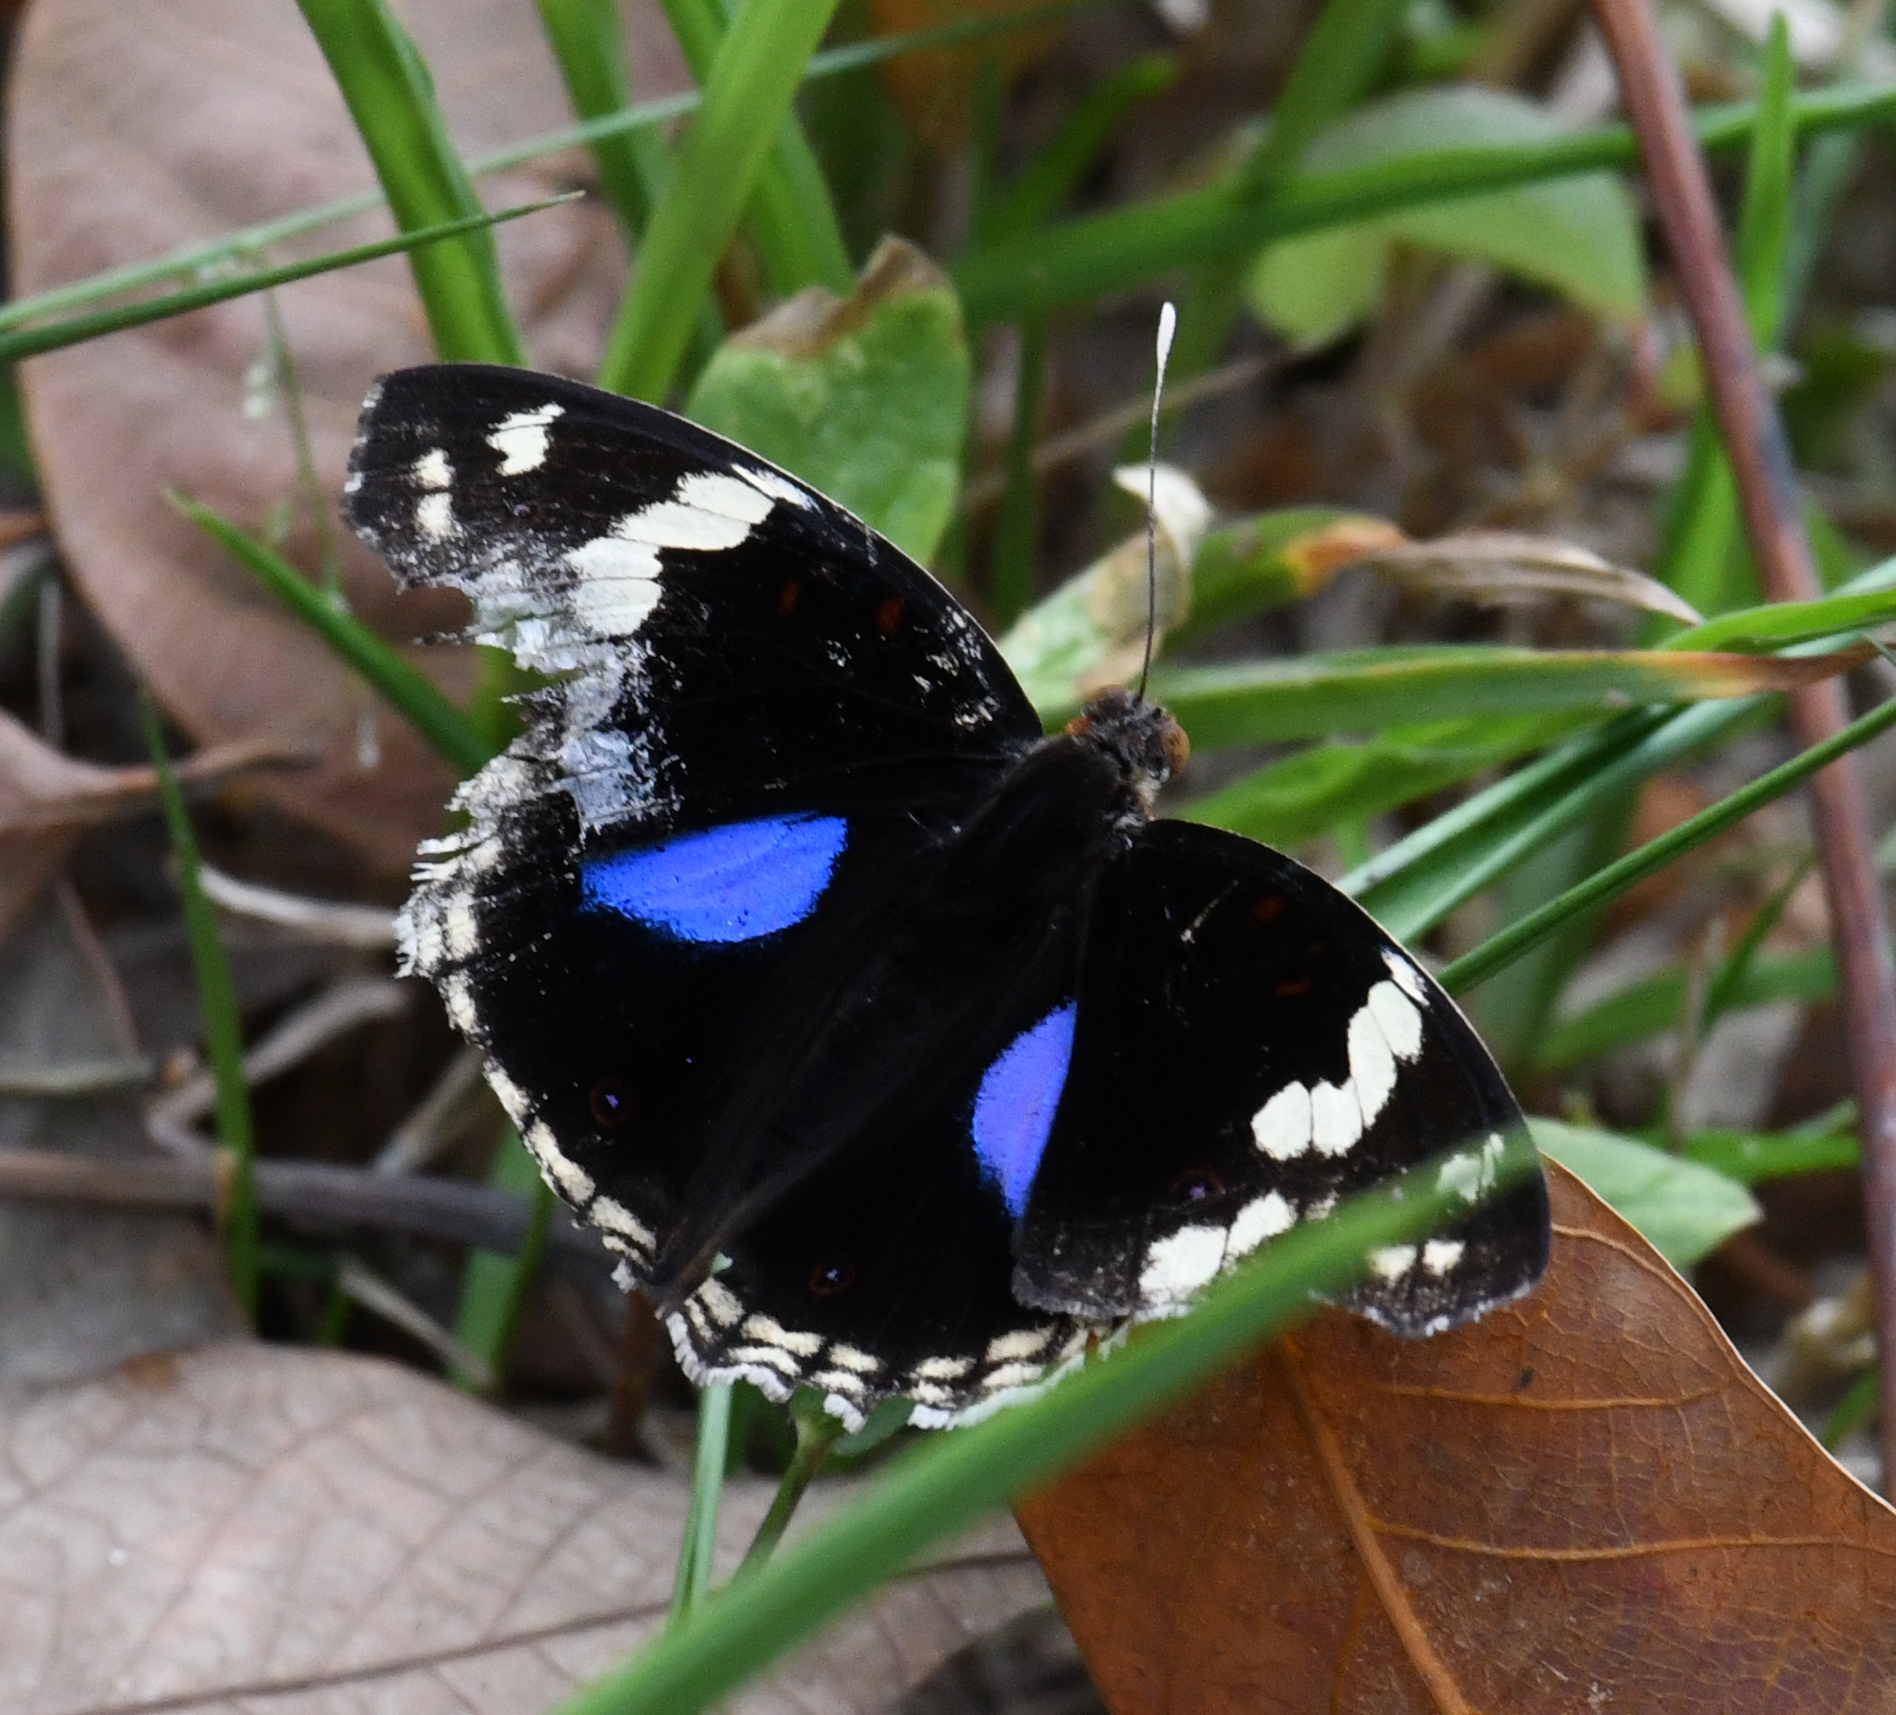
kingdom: Animalia
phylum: Arthropoda
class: Insecta
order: Lepidoptera
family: Nymphalidae
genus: Junonia
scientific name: Junonia oenone
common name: Dark blue pansy
